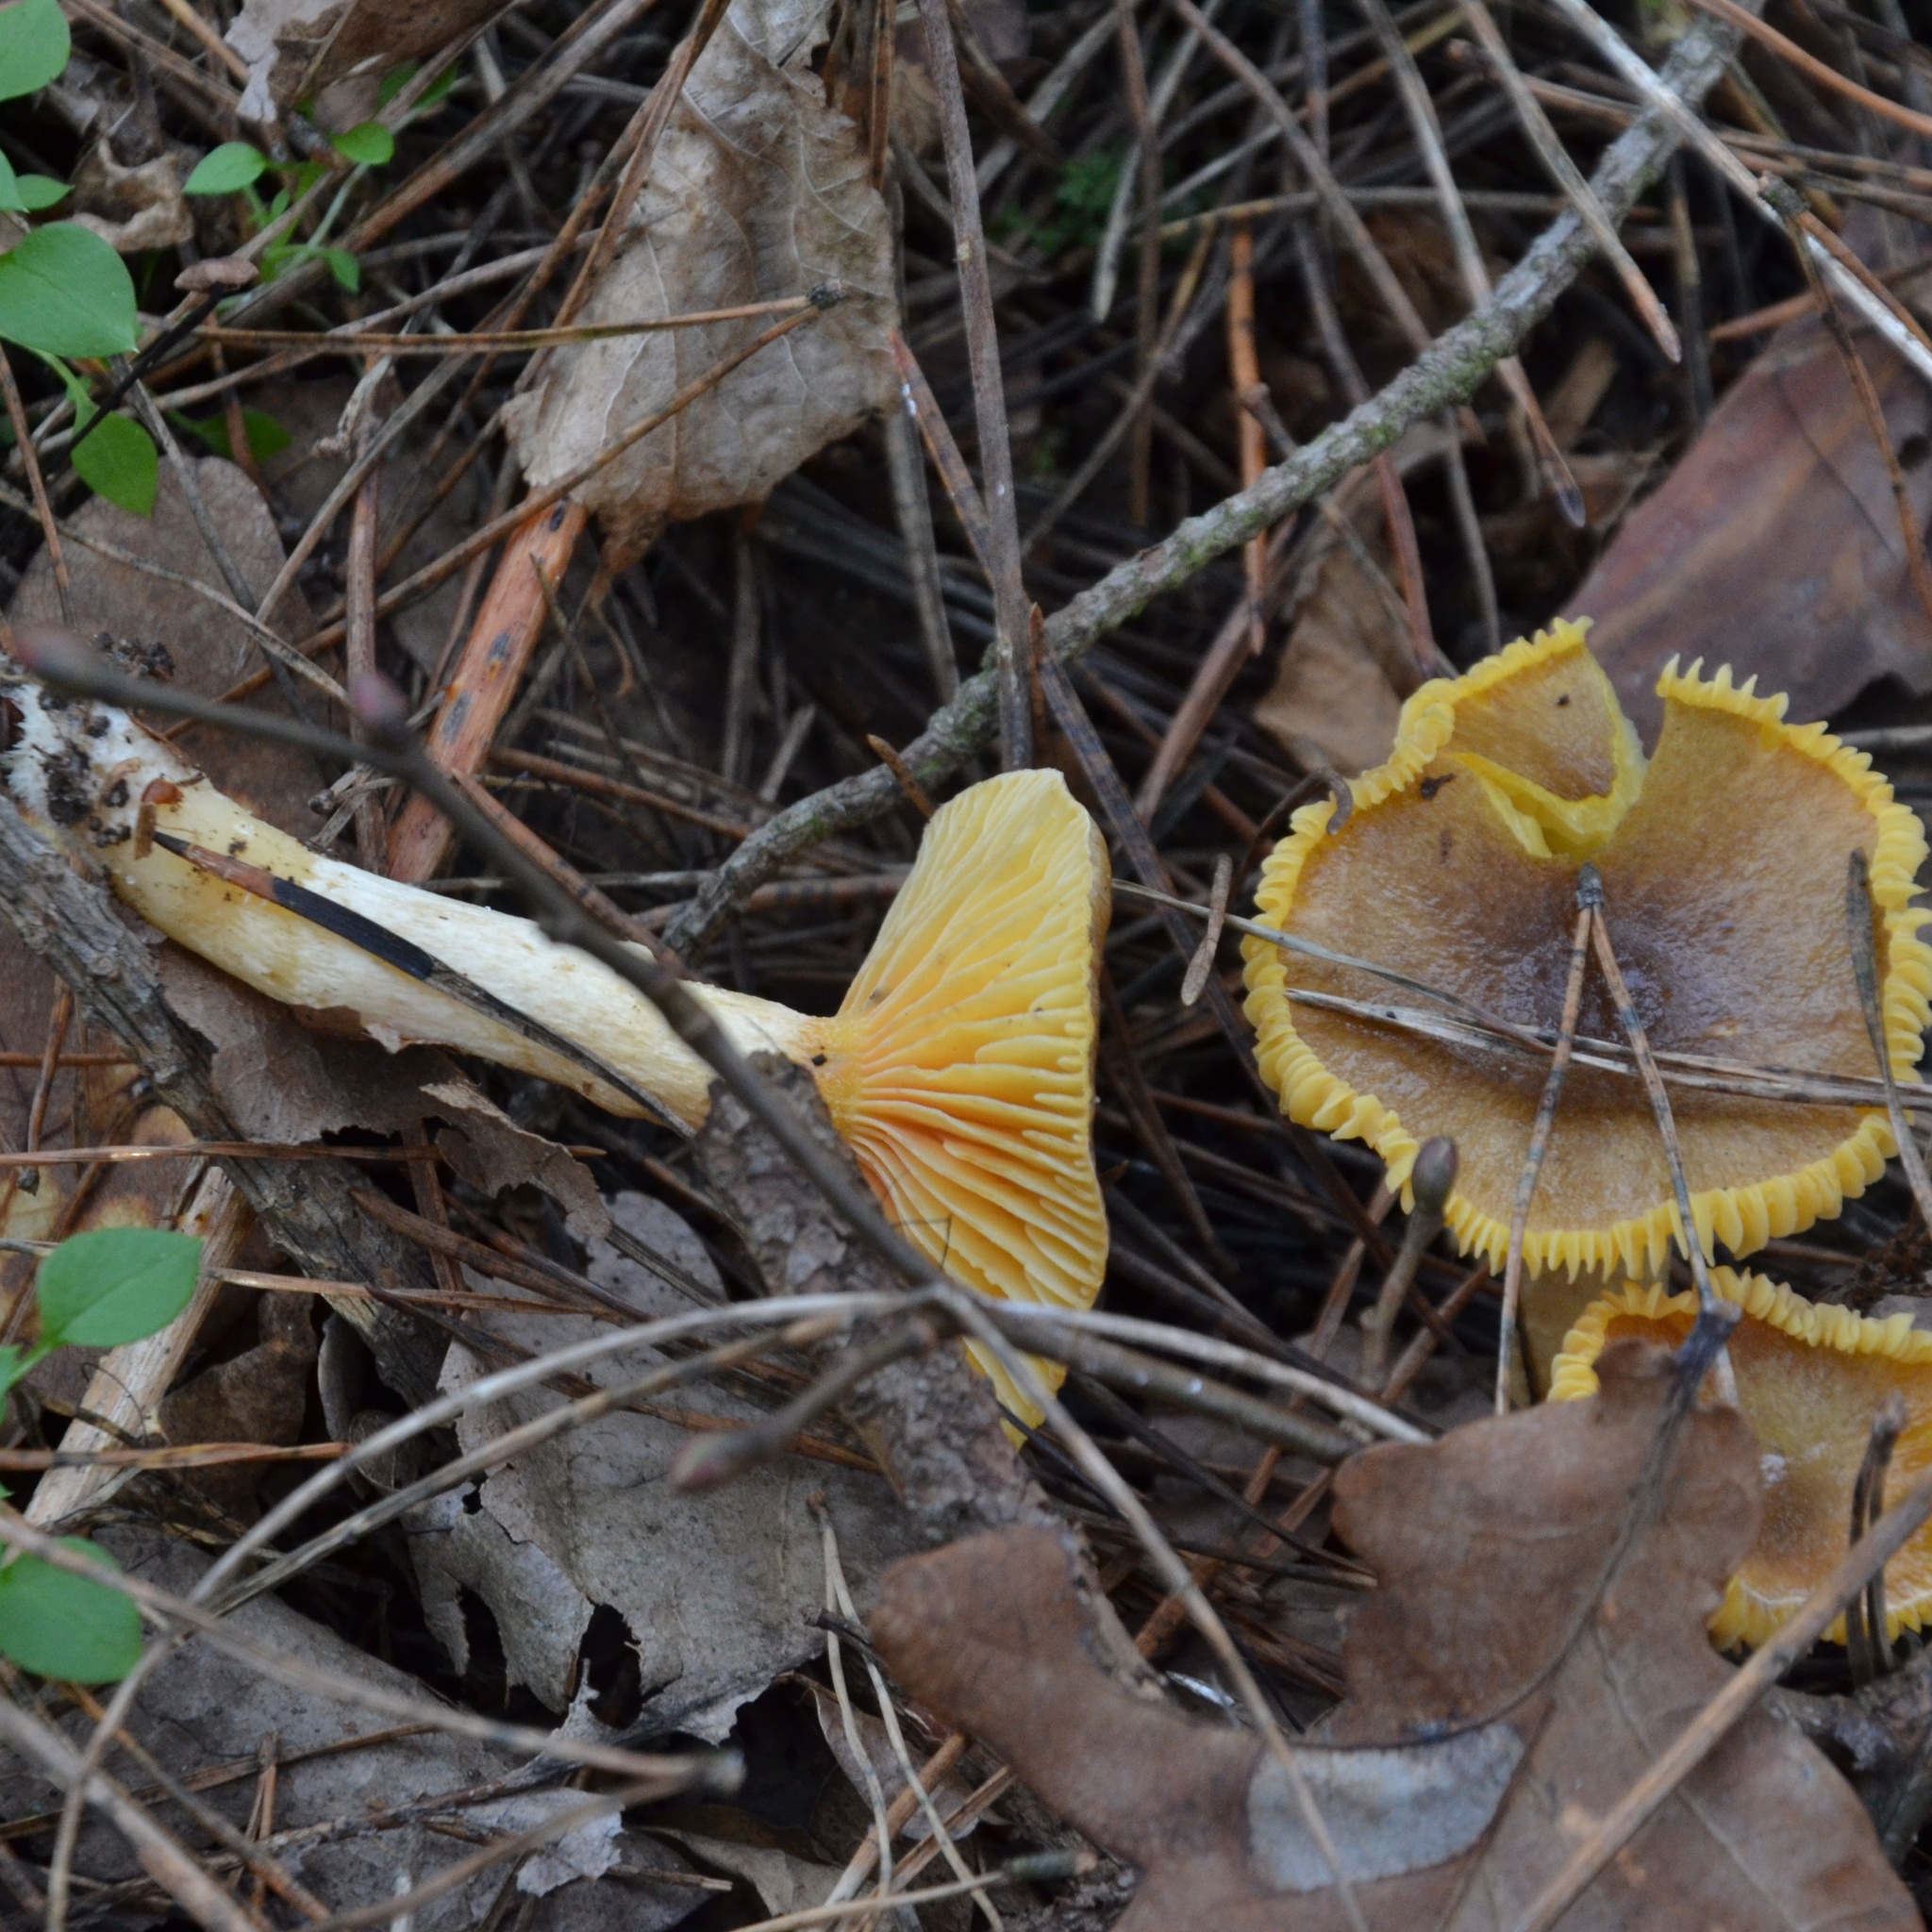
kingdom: Fungi
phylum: Basidiomycota
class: Agaricomycetes
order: Agaricales
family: Hygrophoraceae
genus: Hygrophorus
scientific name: Hygrophorus hypothejus
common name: Herald of winter
